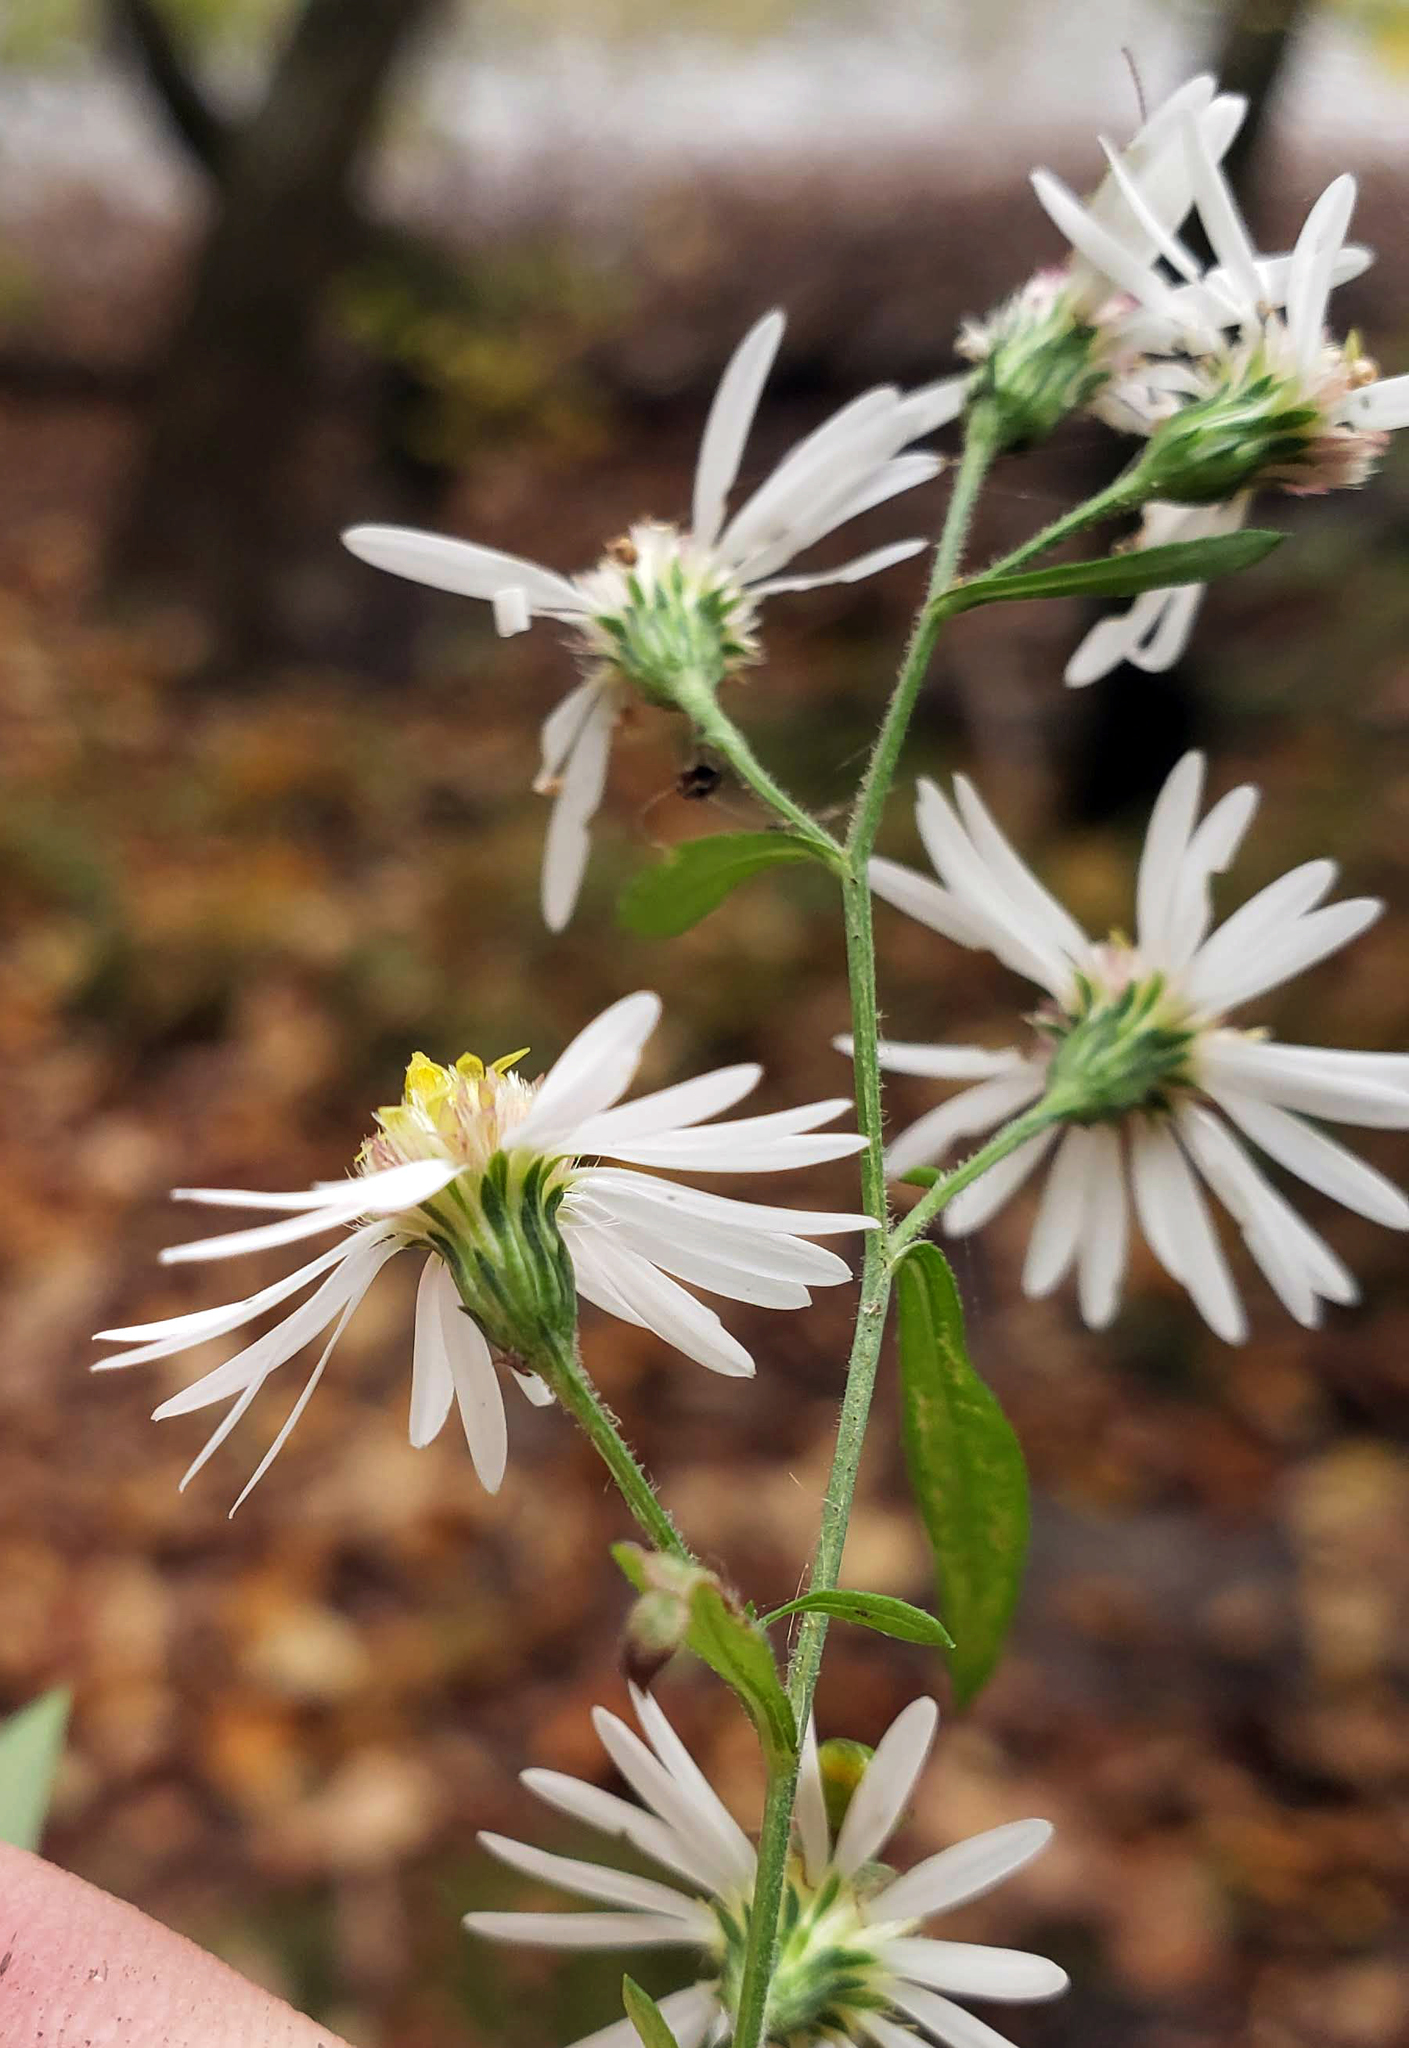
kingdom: Plantae
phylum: Tracheophyta
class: Magnoliopsida
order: Asterales
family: Asteraceae
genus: Symphyotrichum
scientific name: Symphyotrichum ontarionis
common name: Bottomland aster
